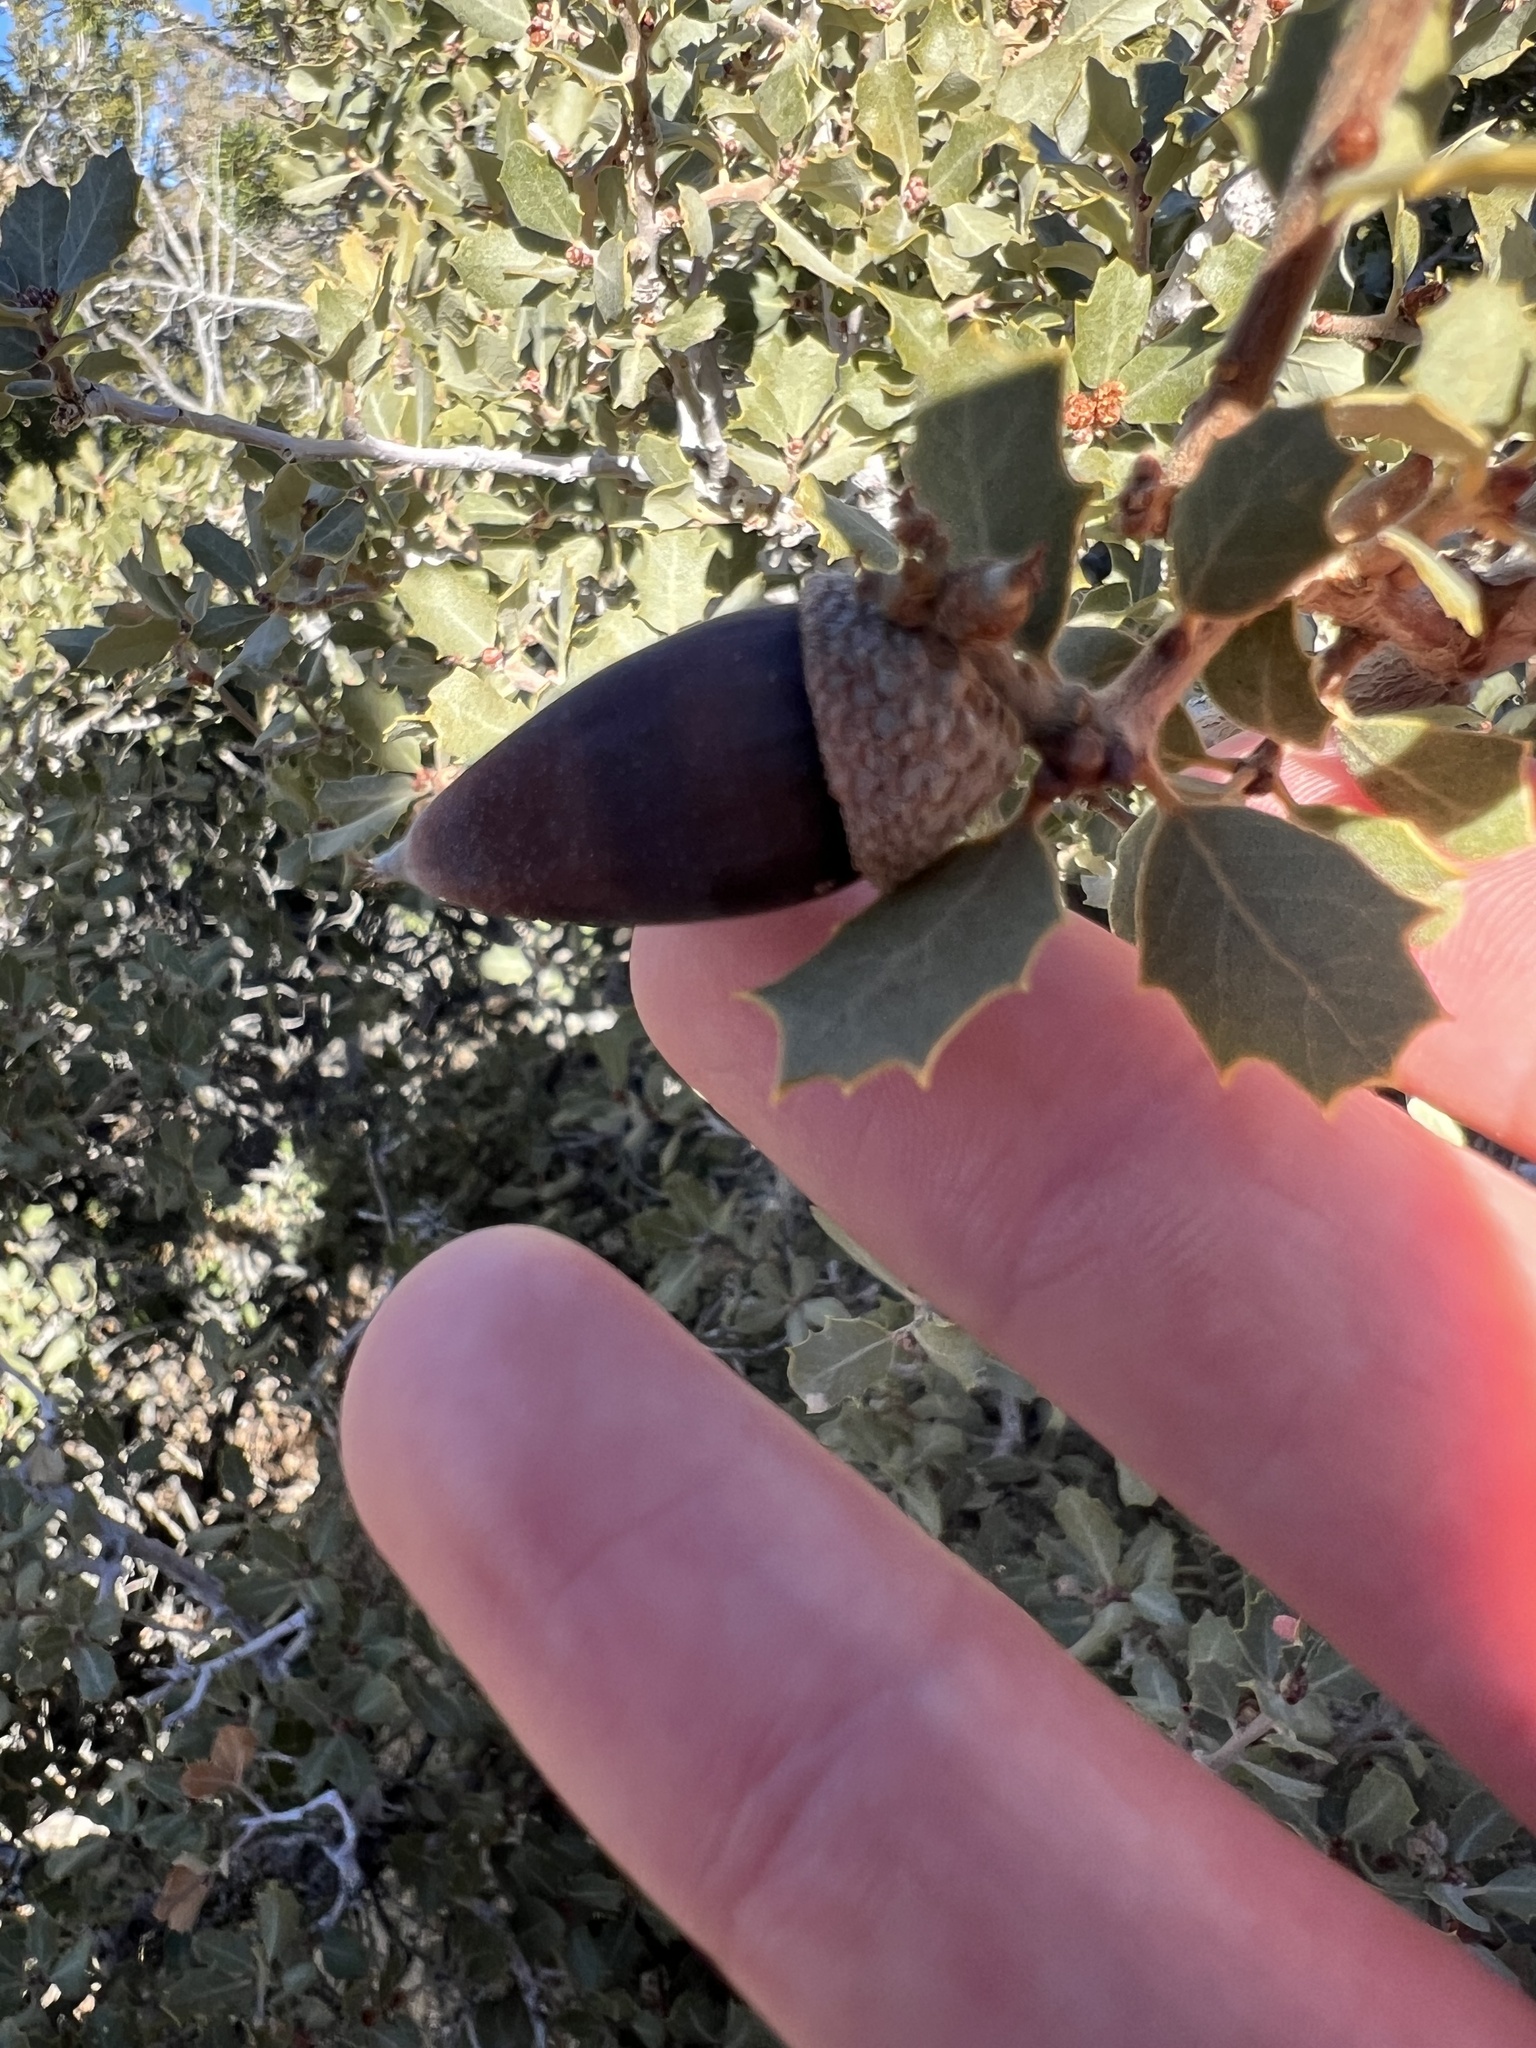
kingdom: Plantae
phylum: Tracheophyta
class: Magnoliopsida
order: Fagales
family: Fagaceae
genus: Quercus
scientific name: Quercus cornelius-mulleri
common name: Muller oak
